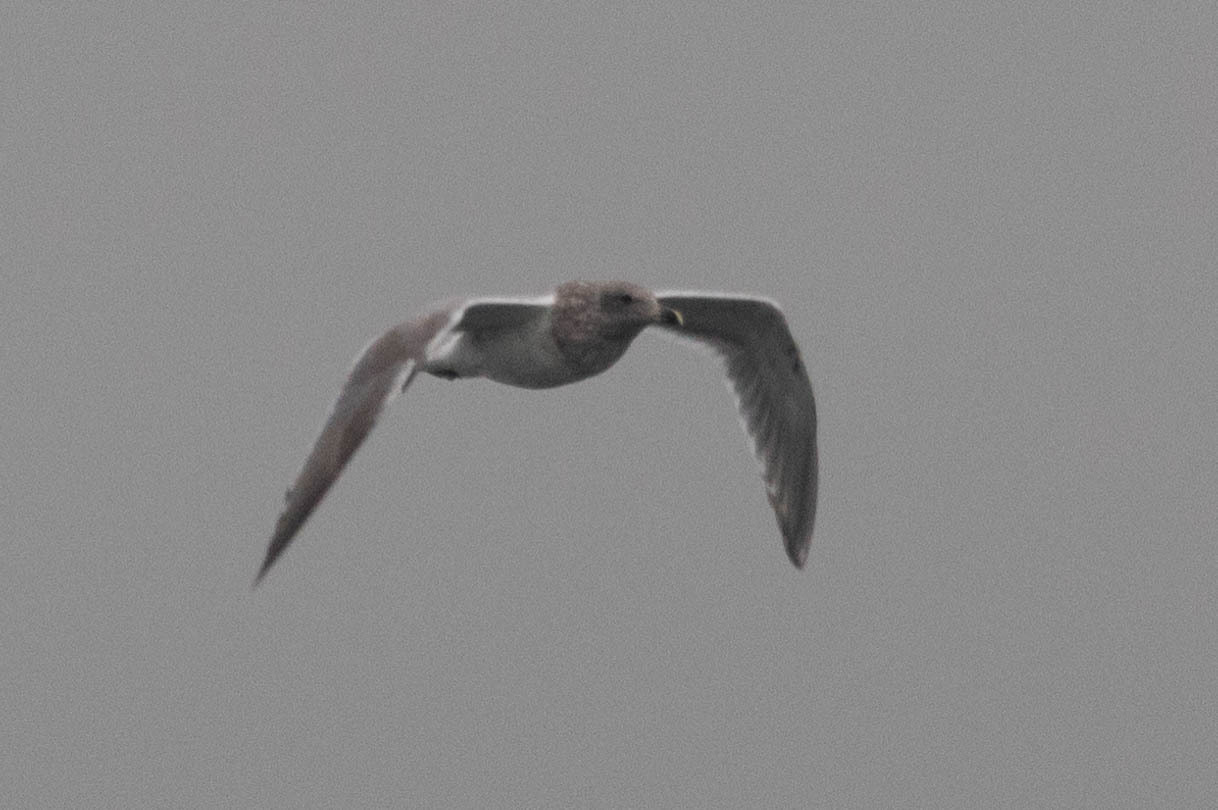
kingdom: Animalia
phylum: Chordata
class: Aves
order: Charadriiformes
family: Laridae
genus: Larus
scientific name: Larus
